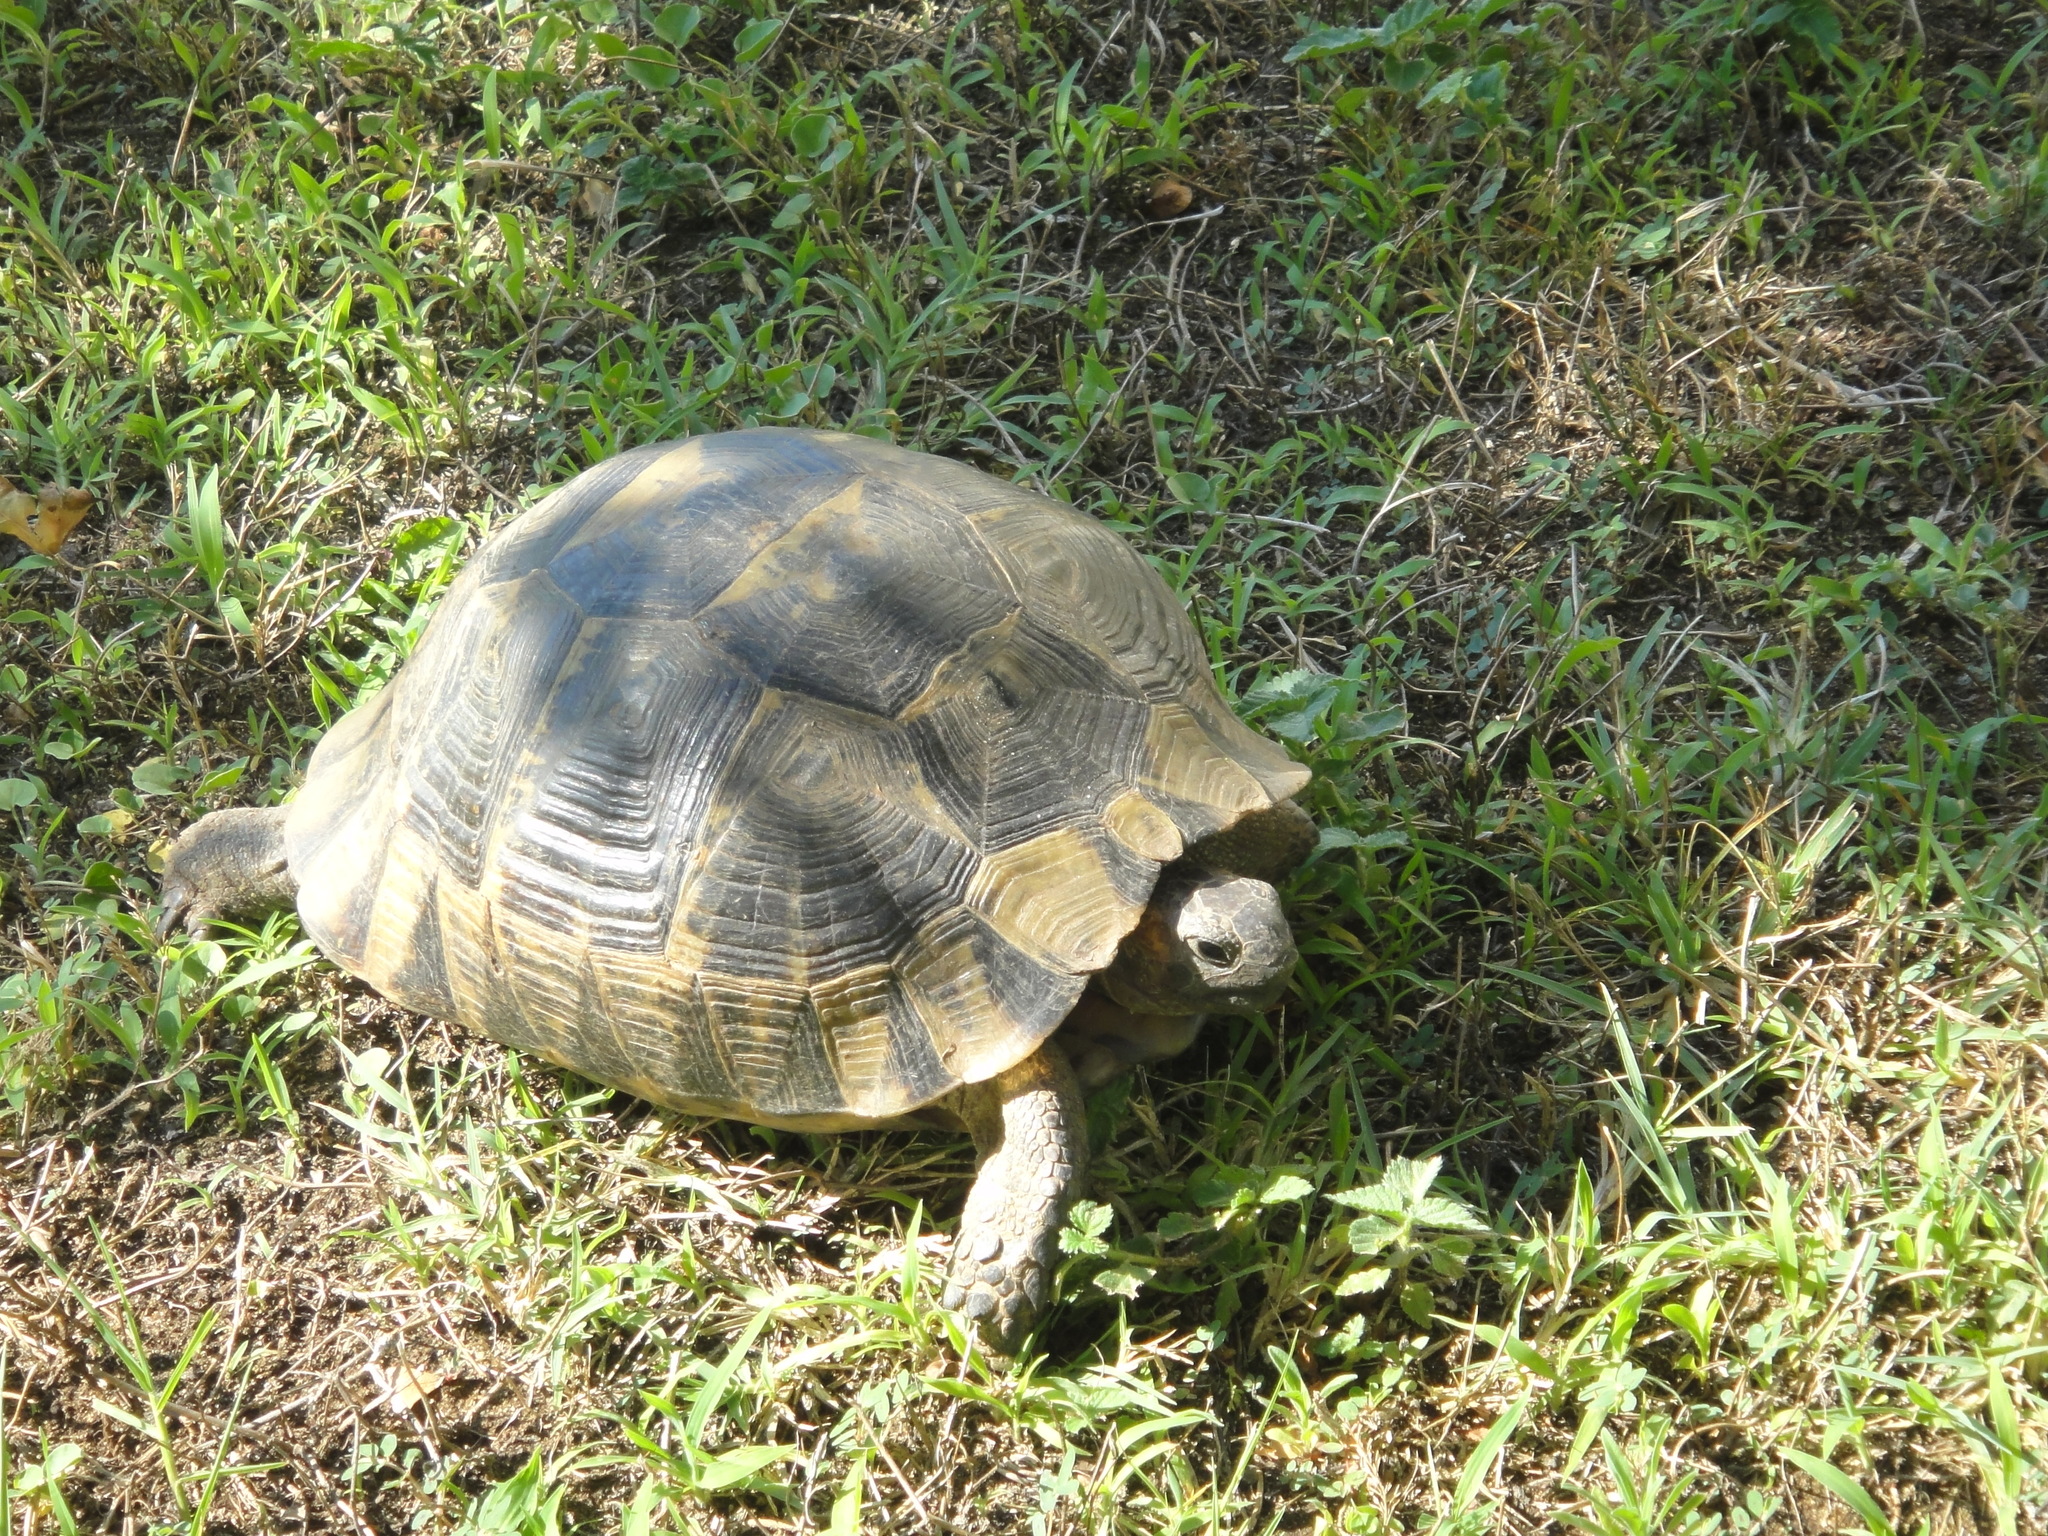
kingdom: Animalia
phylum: Chordata
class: Testudines
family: Testudinidae
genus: Testudo
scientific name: Testudo graeca
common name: Common tortoise
